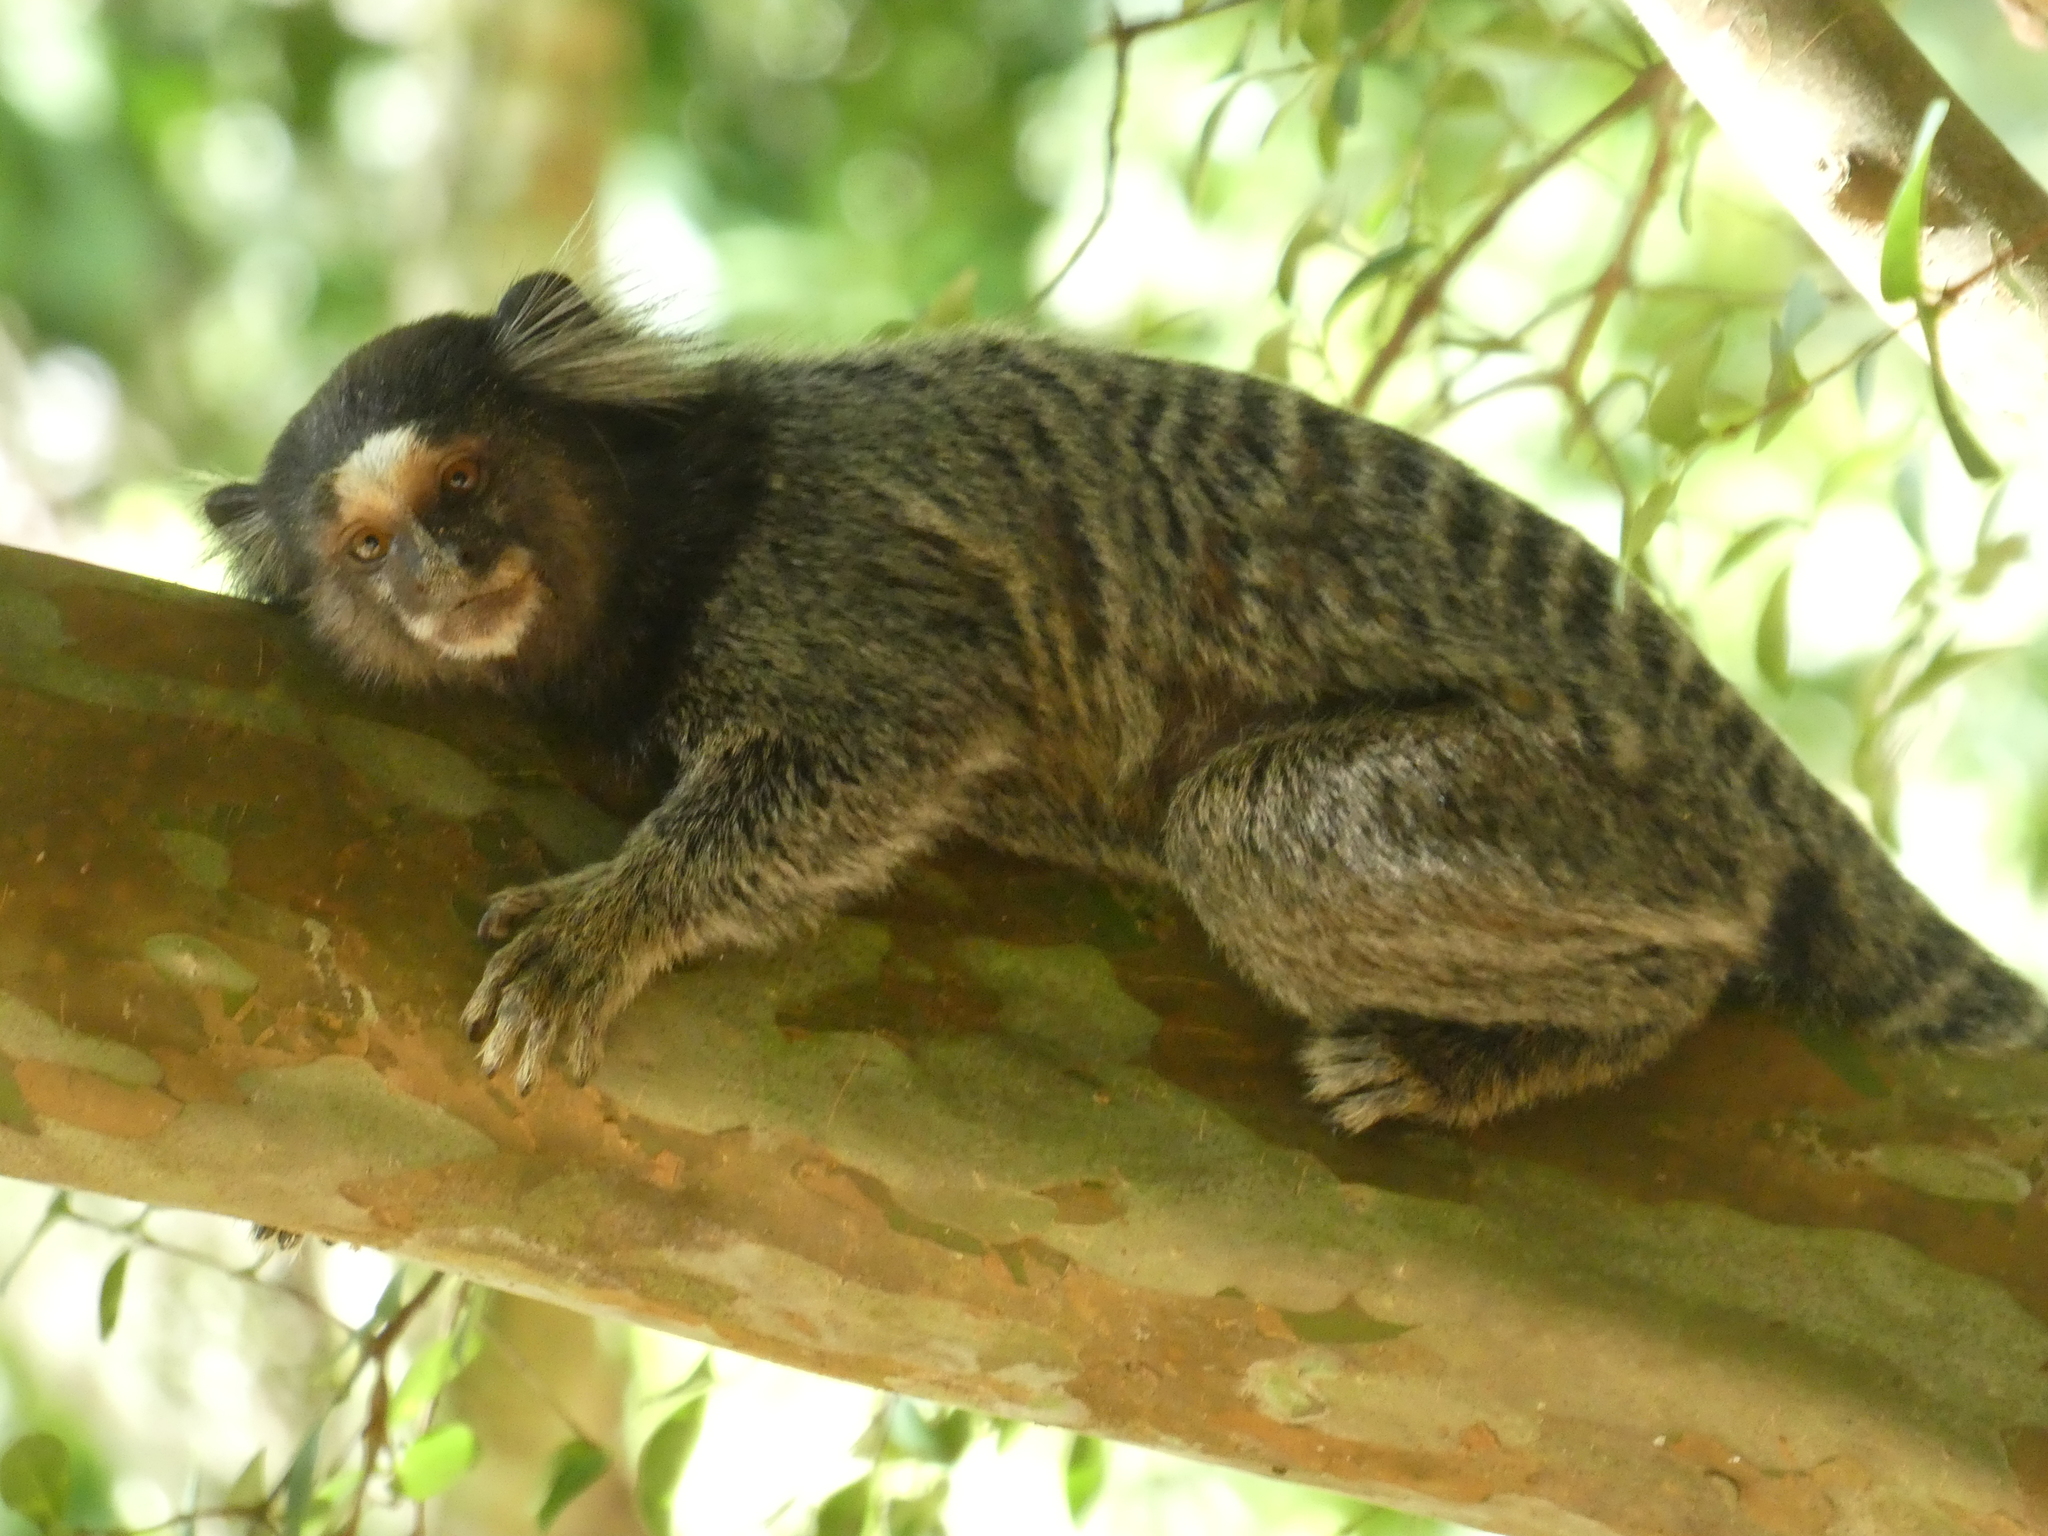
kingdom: Animalia
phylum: Chordata
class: Mammalia
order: Primates
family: Callitrichidae
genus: Callithrix
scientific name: Callithrix penicillata
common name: Black-tufted marmoset
